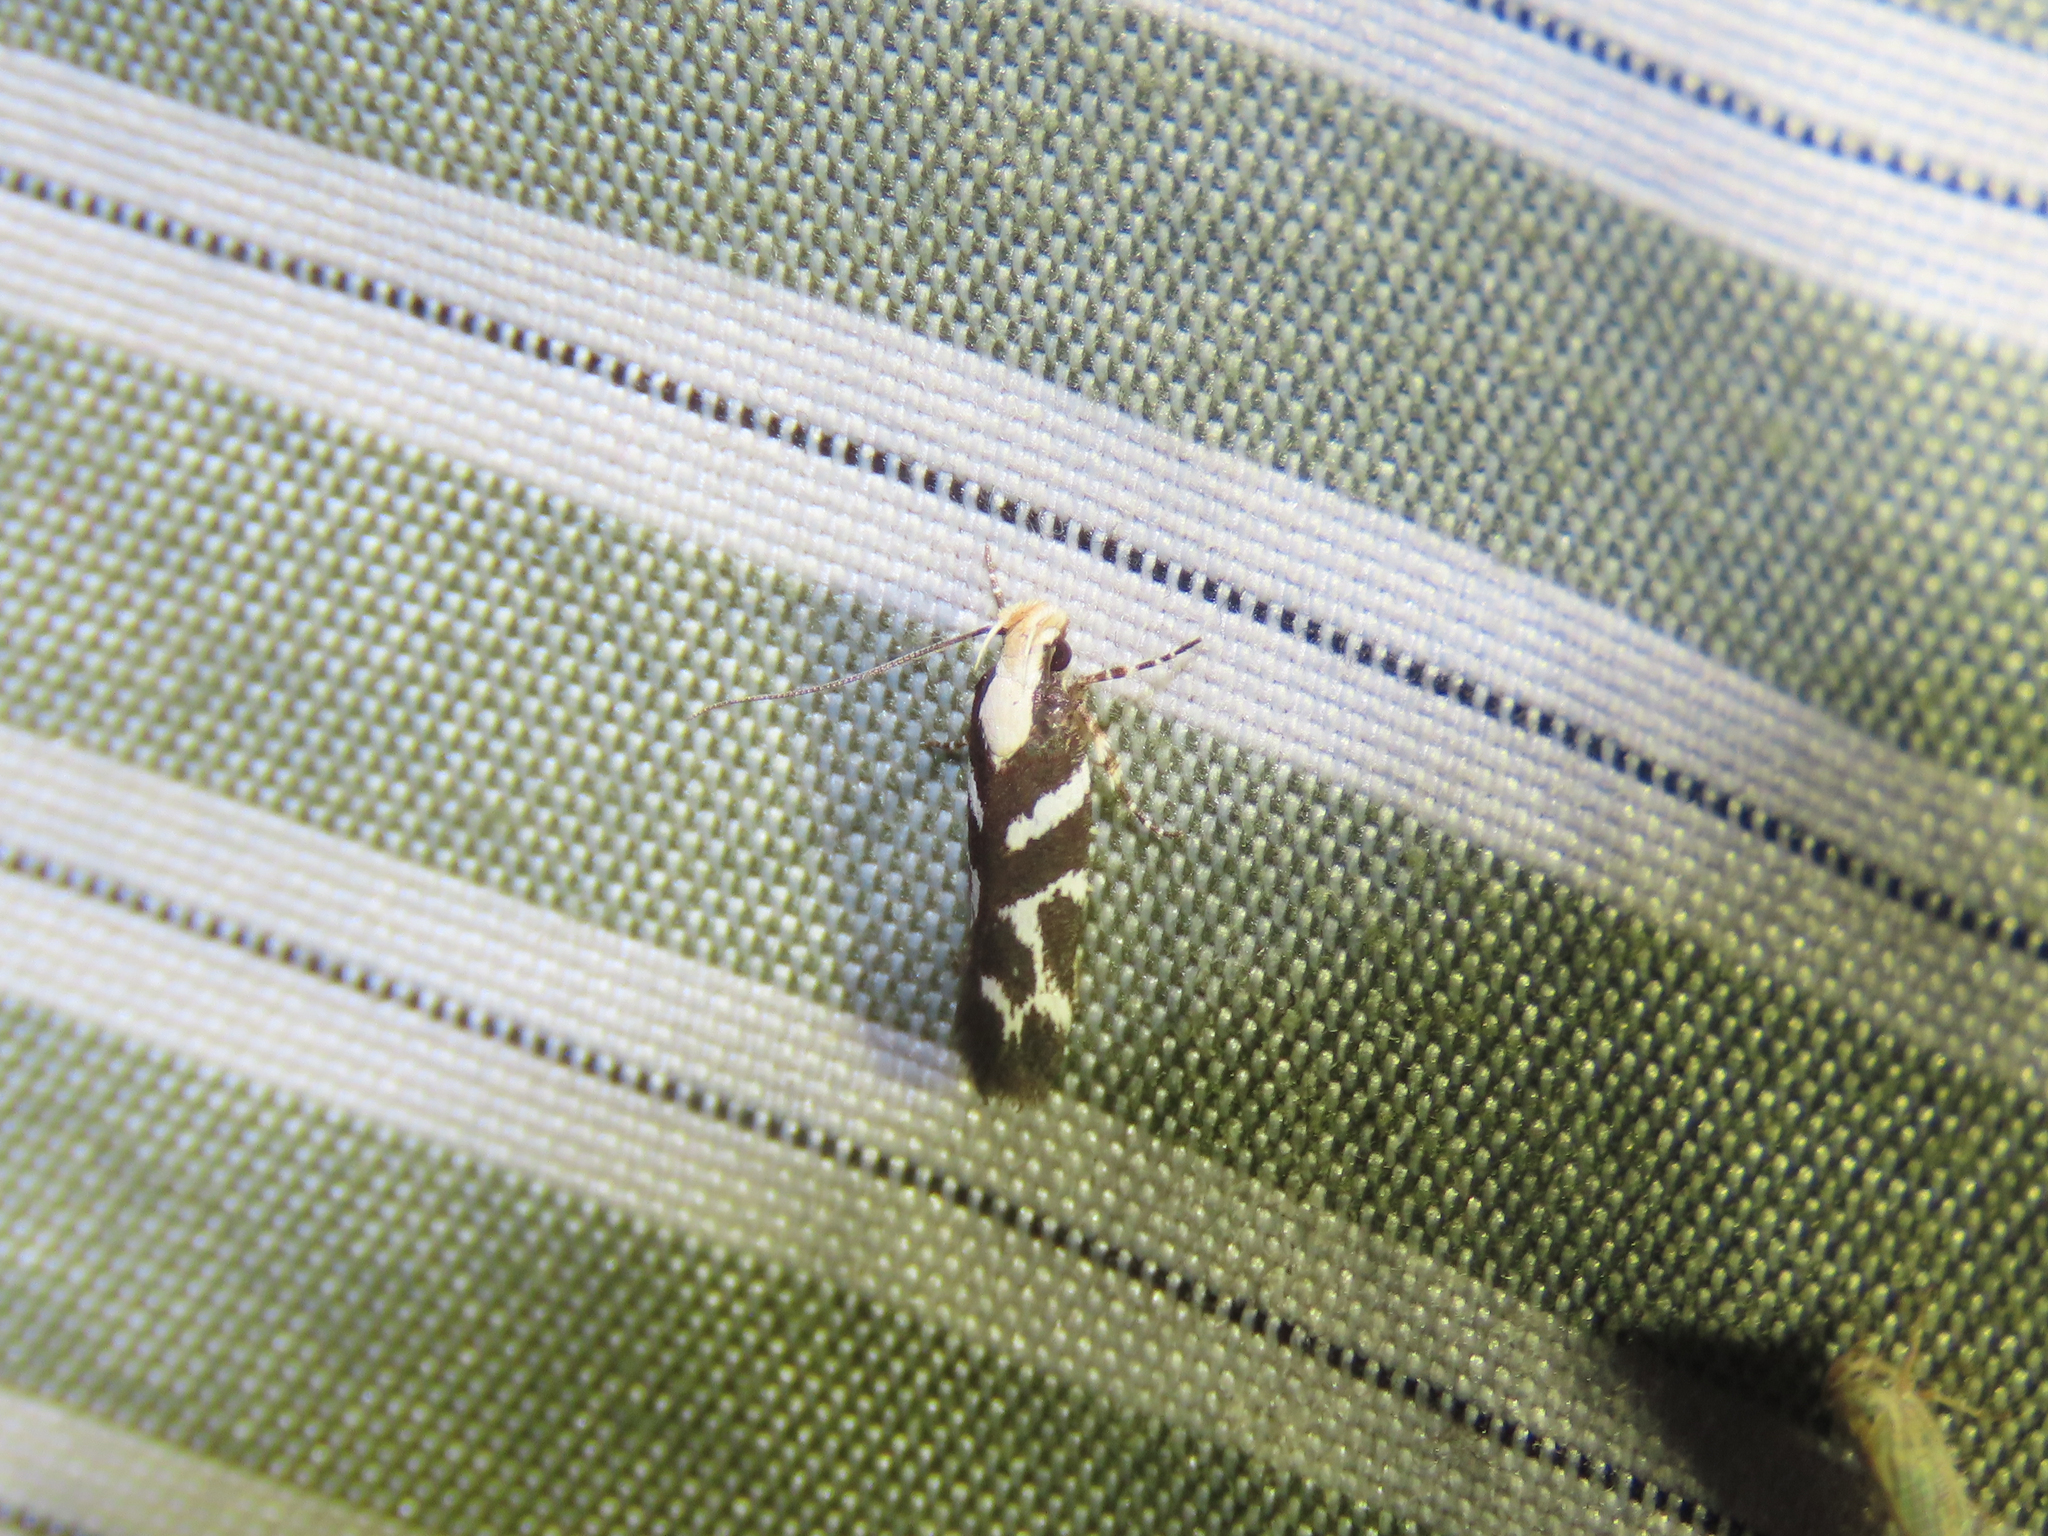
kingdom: Animalia
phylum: Arthropoda
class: Insecta
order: Lepidoptera
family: Gelechiidae
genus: Filatima
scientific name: Filatima albilorella
